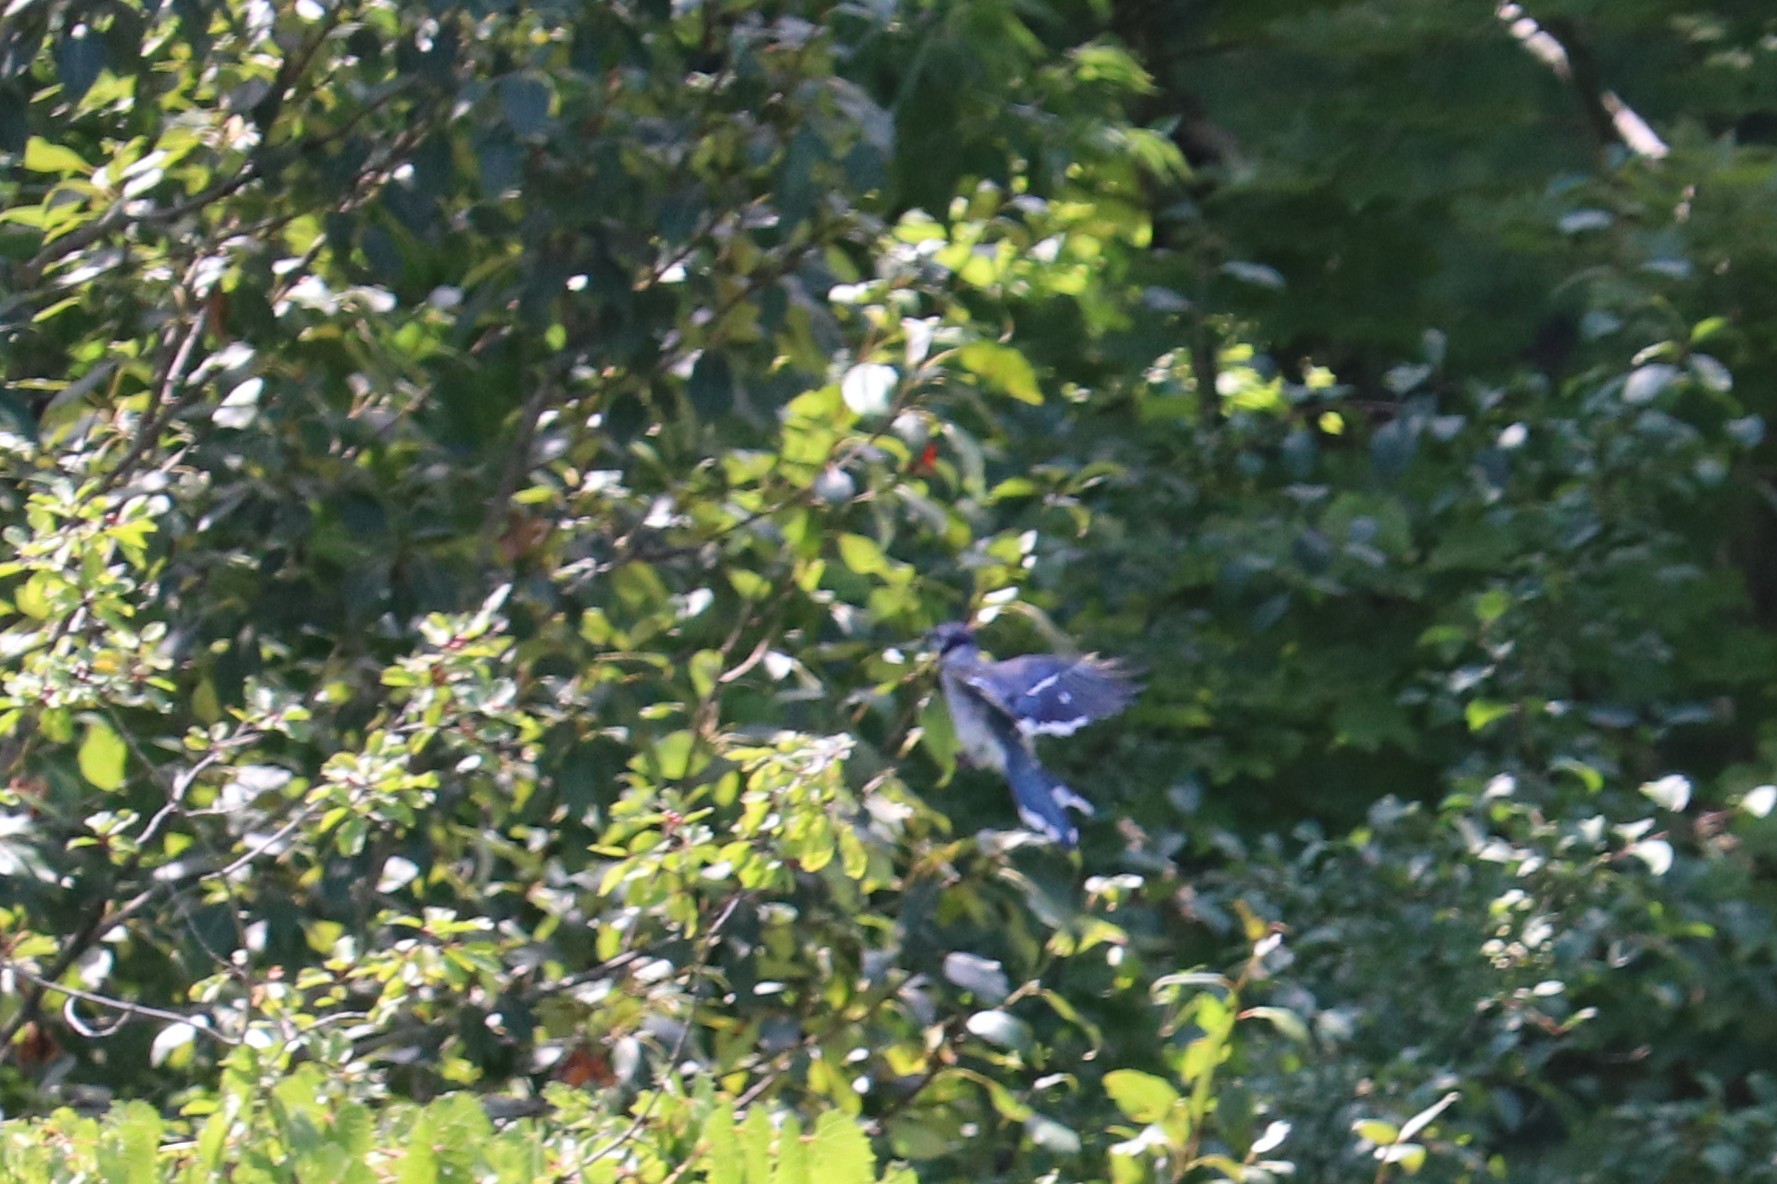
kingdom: Animalia
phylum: Chordata
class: Aves
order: Passeriformes
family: Corvidae
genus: Cyanocitta
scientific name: Cyanocitta cristata
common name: Blue jay
